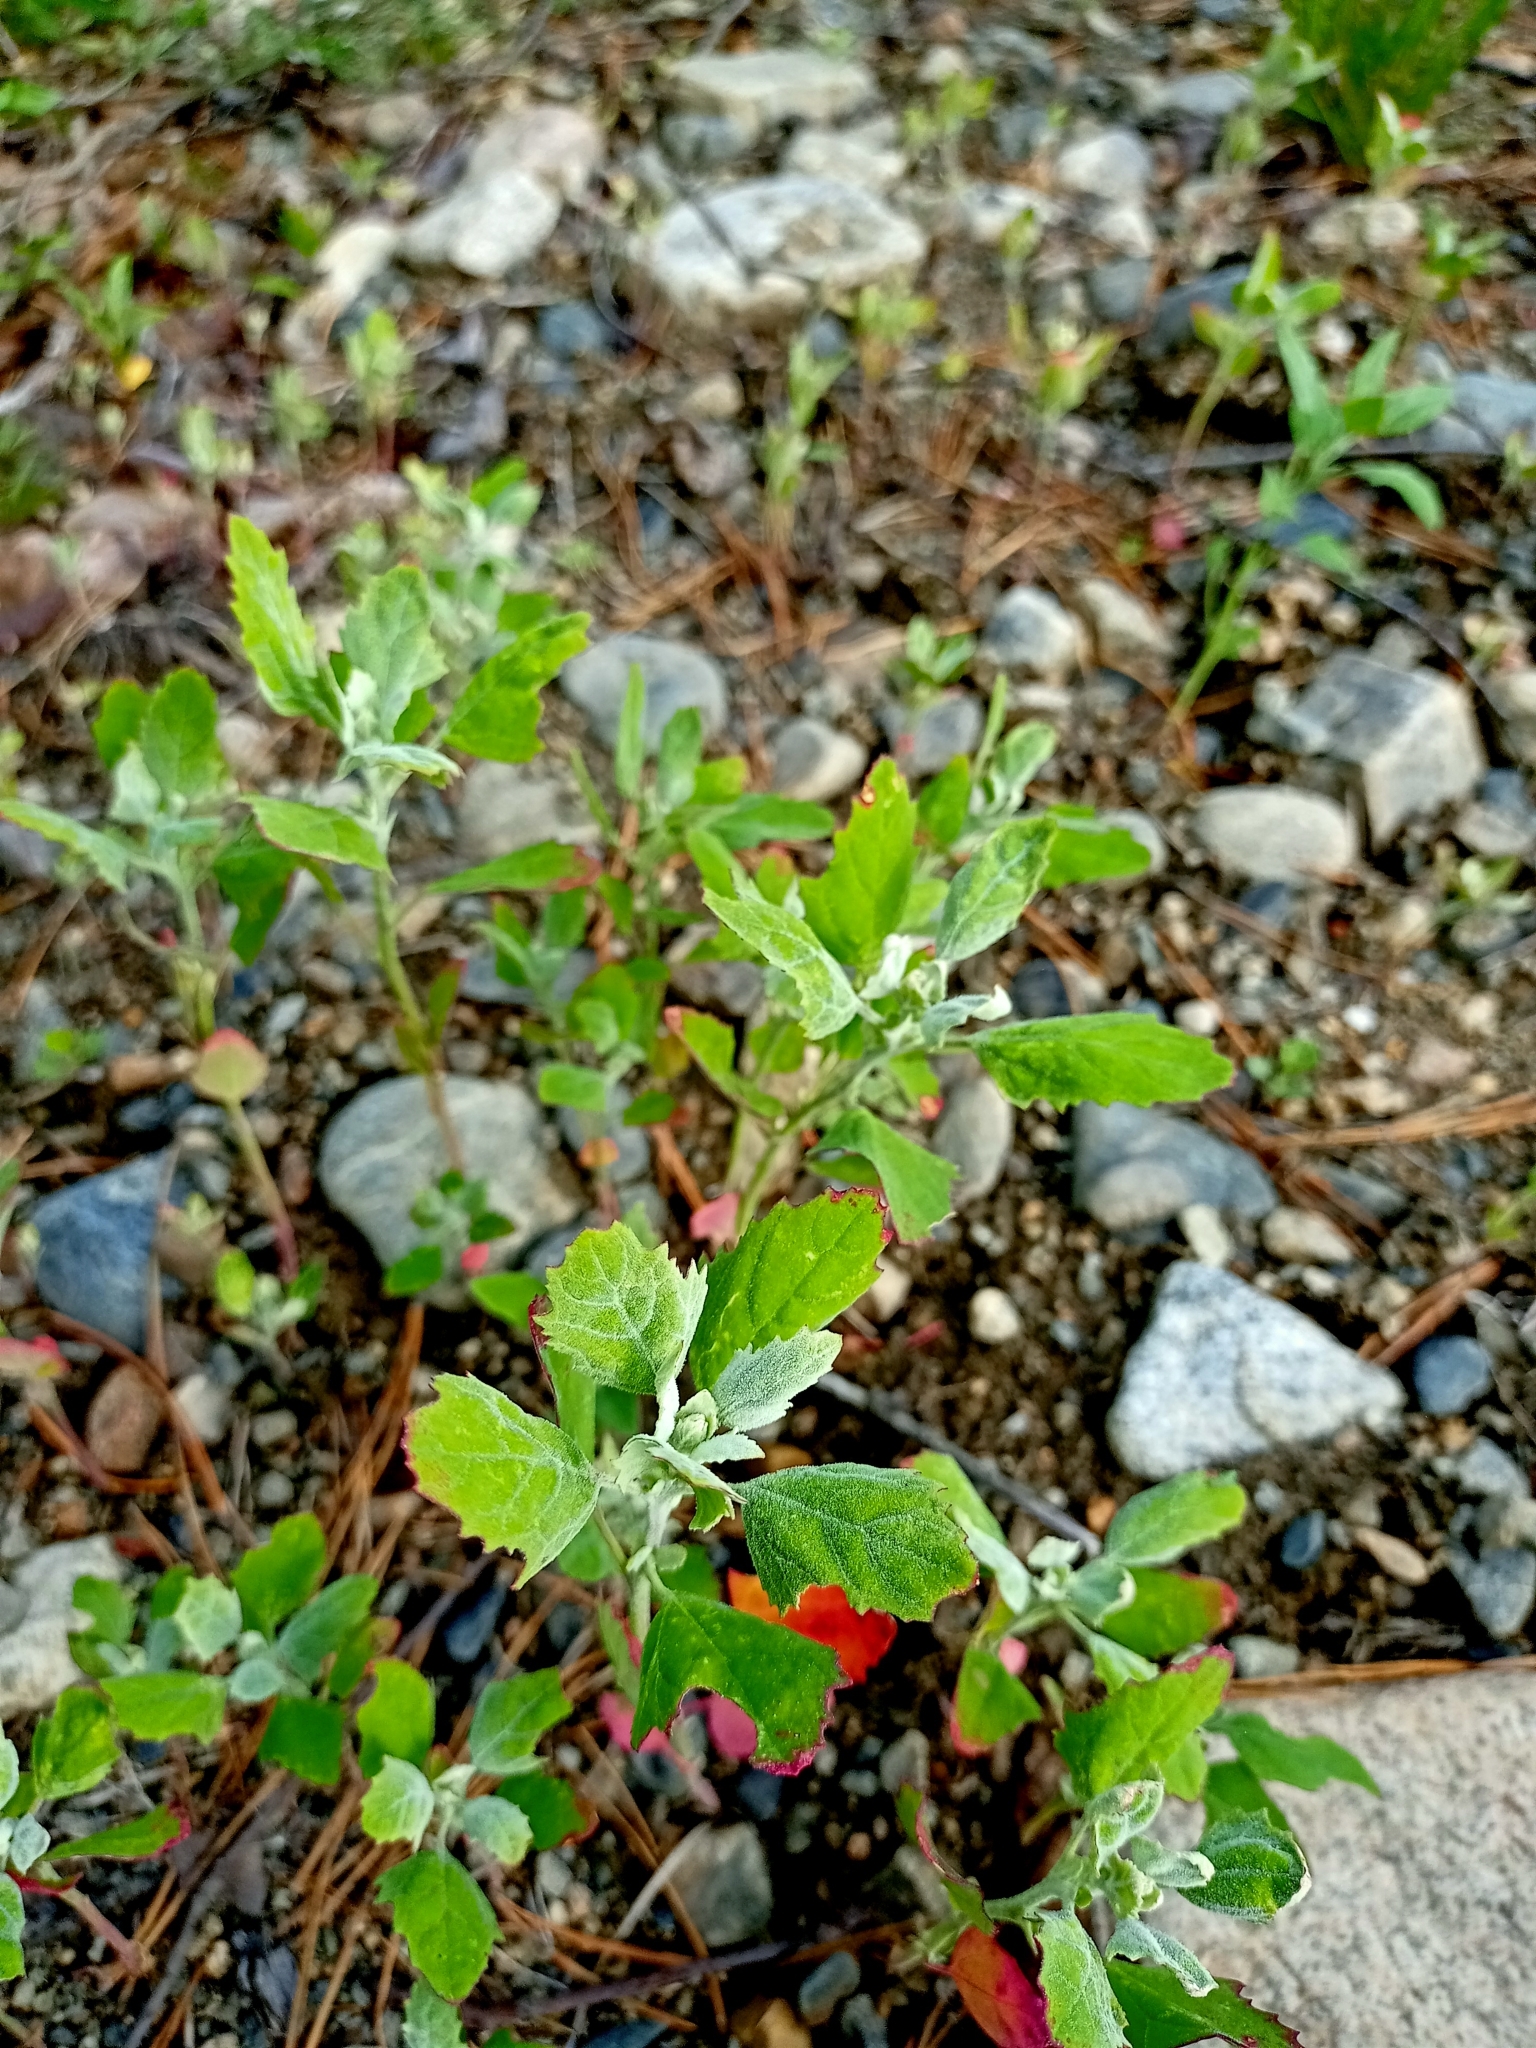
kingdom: Plantae
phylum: Tracheophyta
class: Magnoliopsida
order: Caryophyllales
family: Amaranthaceae
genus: Chenopodium
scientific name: Chenopodium album
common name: Fat-hen
